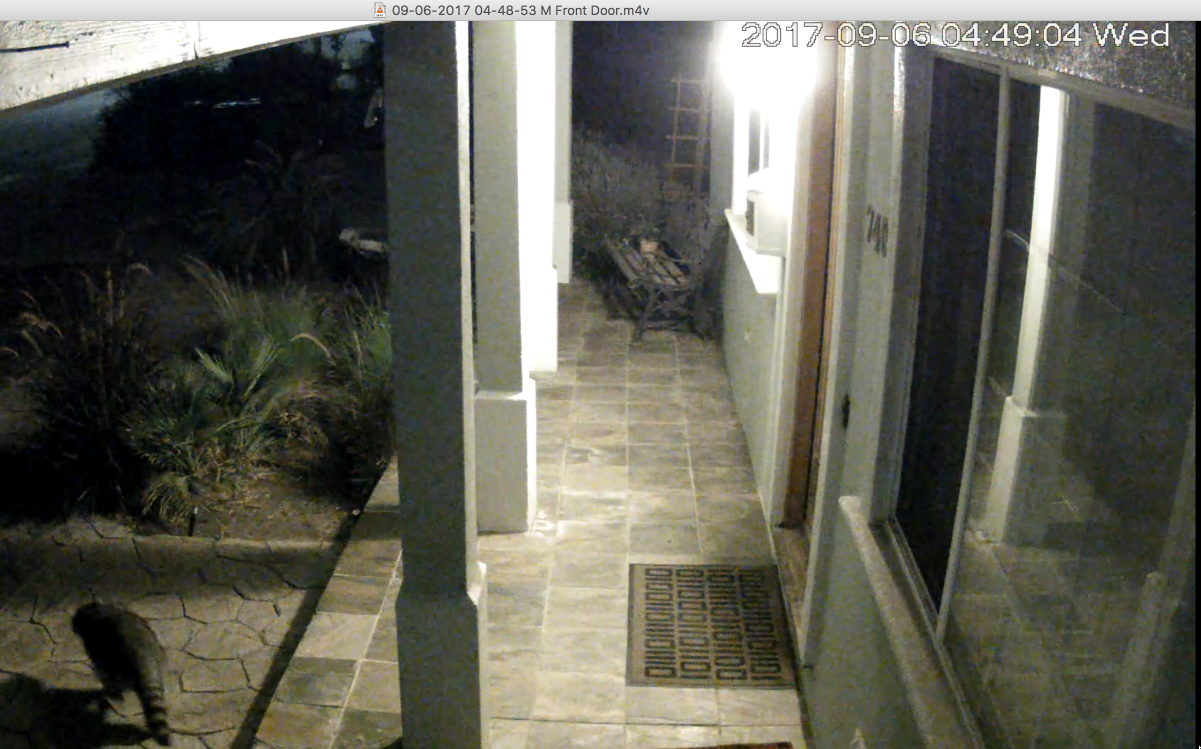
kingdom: Animalia
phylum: Chordata
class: Mammalia
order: Carnivora
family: Procyonidae
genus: Procyon
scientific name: Procyon lotor
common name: Raccoon
